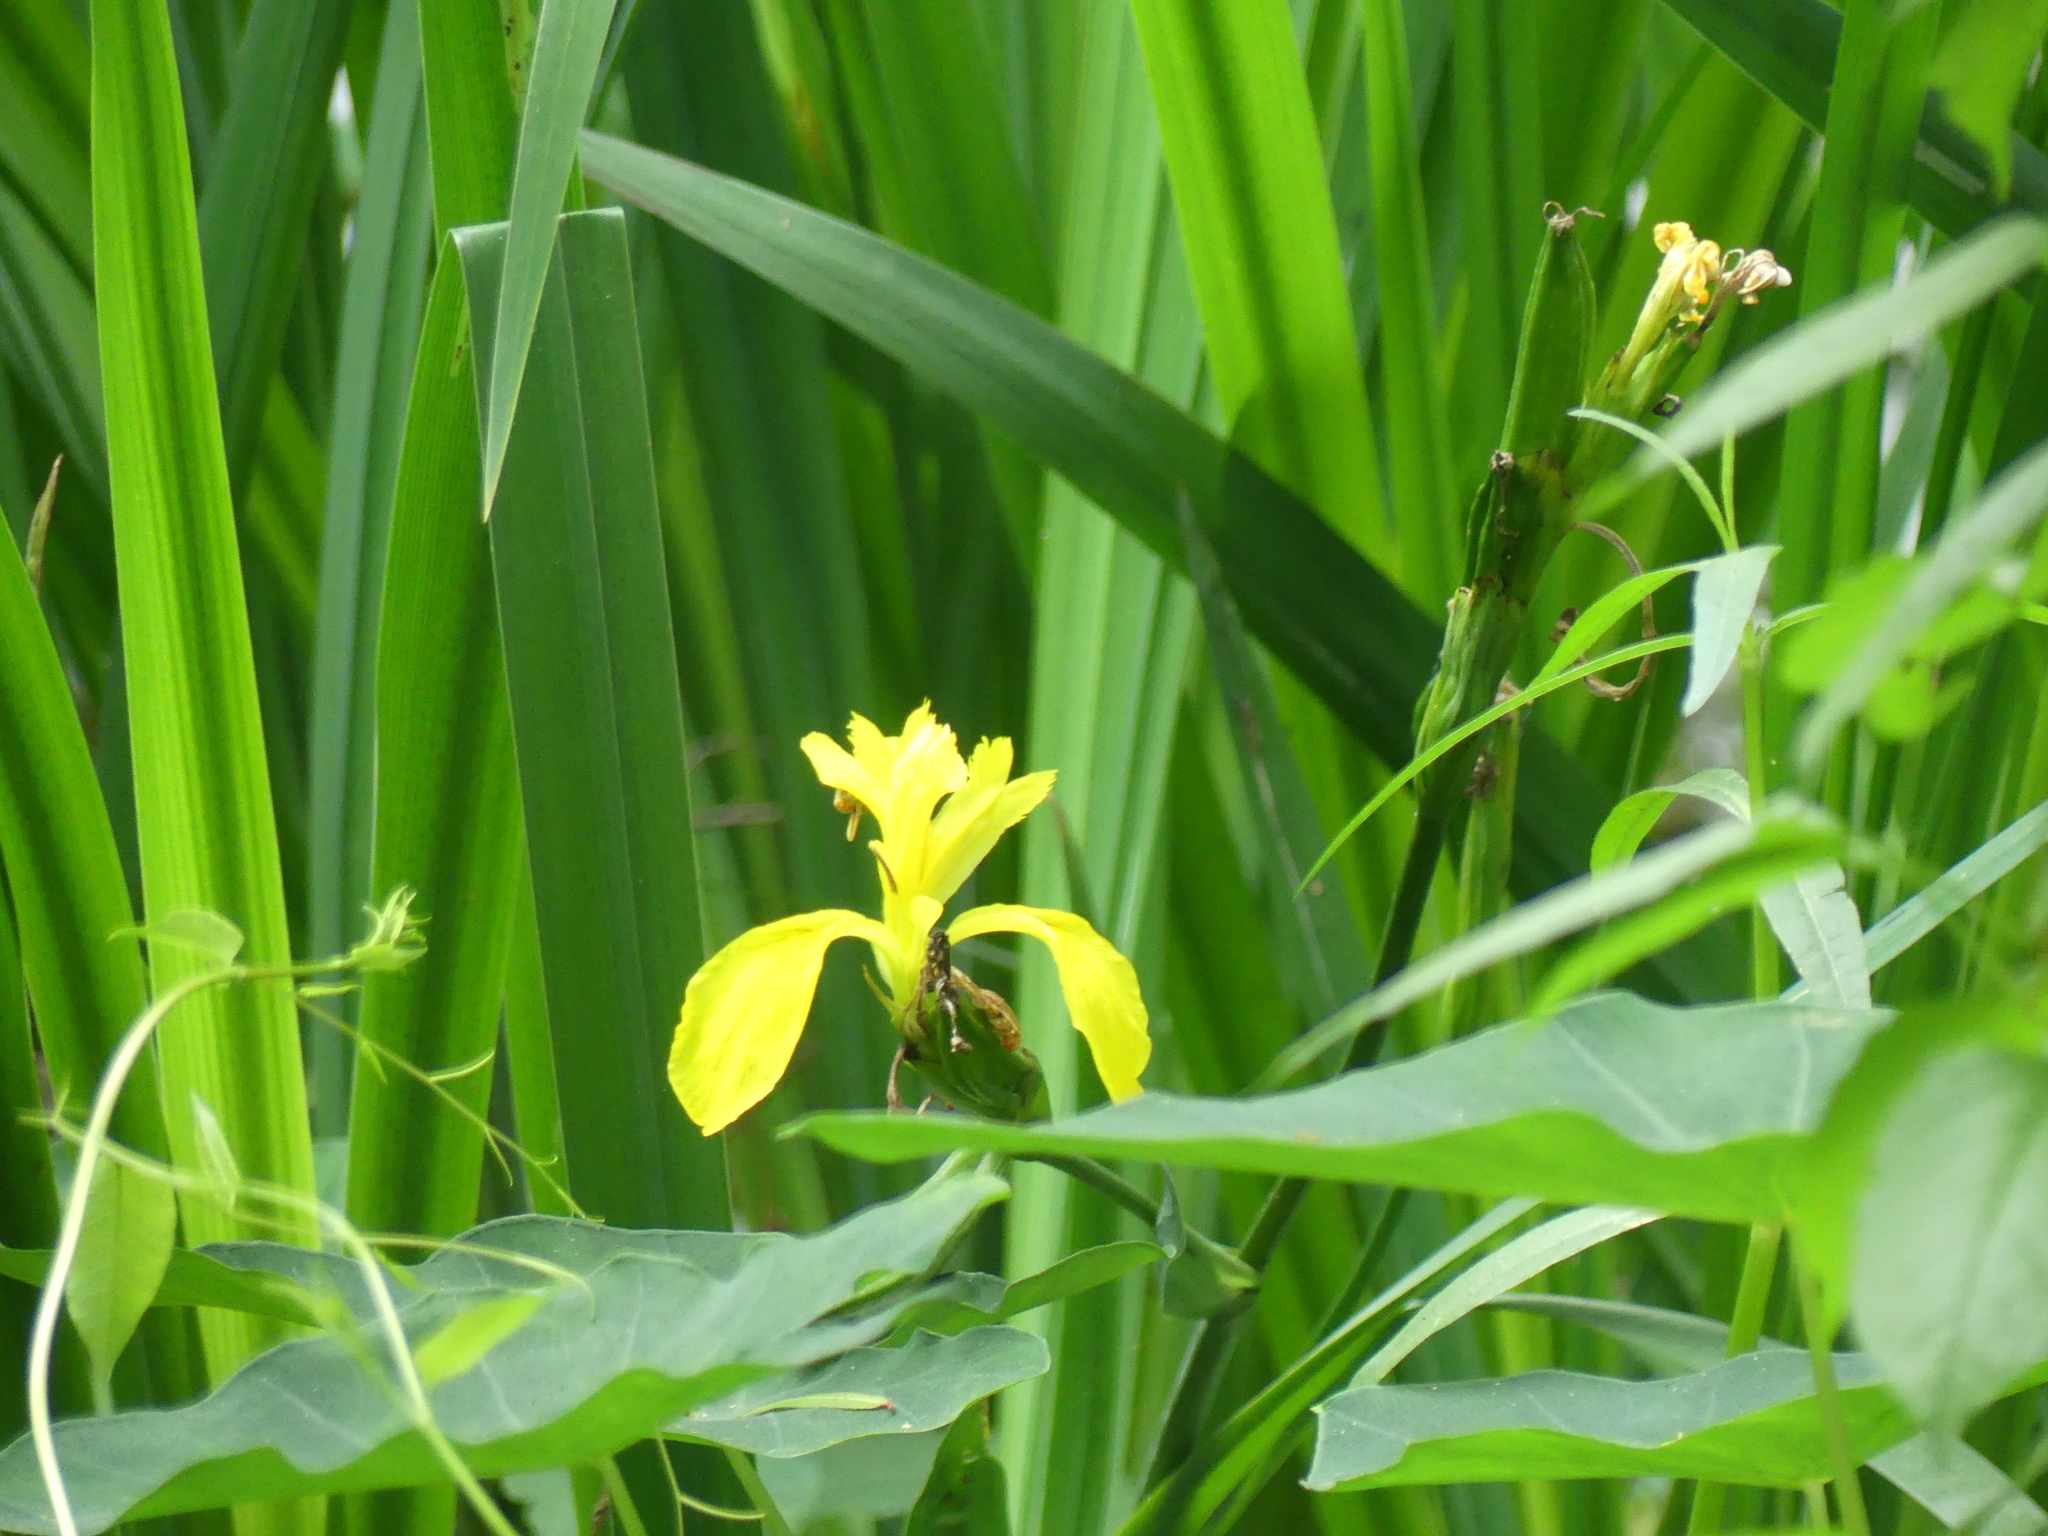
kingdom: Plantae
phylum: Tracheophyta
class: Liliopsida
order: Asparagales
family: Iridaceae
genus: Iris
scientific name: Iris pseudacorus
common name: Yellow flag
